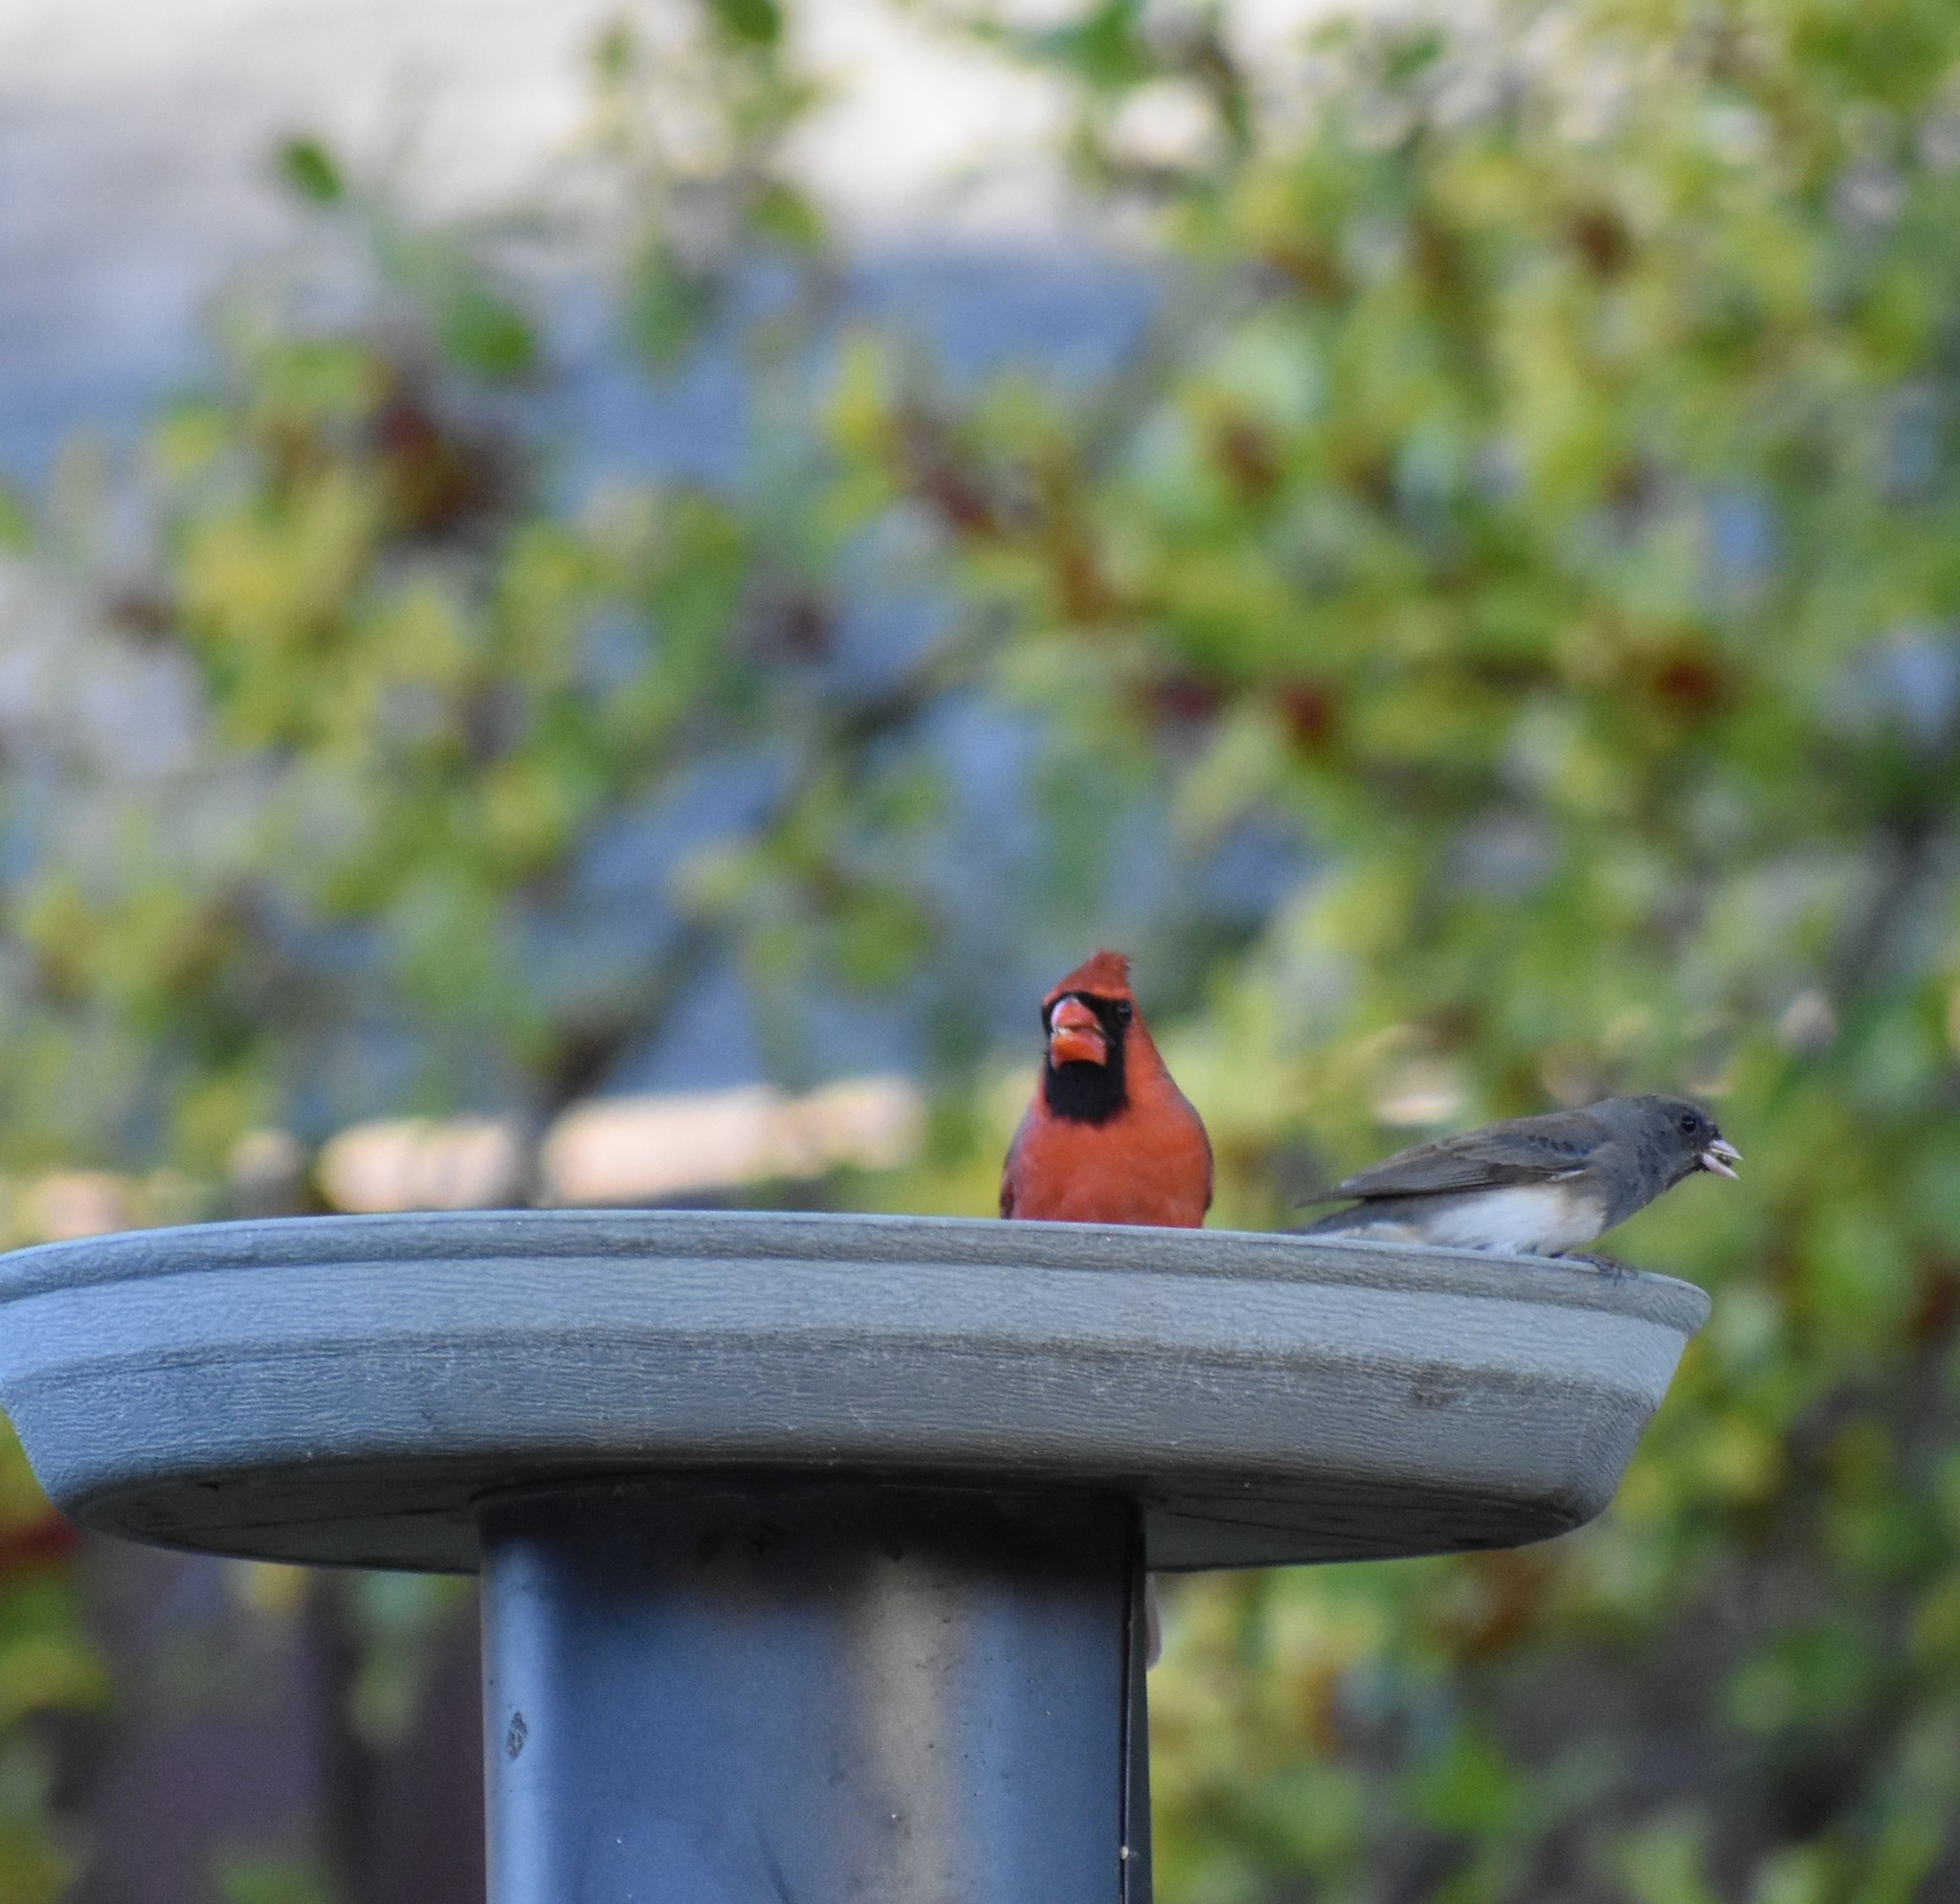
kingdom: Animalia
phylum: Chordata
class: Aves
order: Passeriformes
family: Cardinalidae
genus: Cardinalis
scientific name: Cardinalis cardinalis
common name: Northern cardinal
